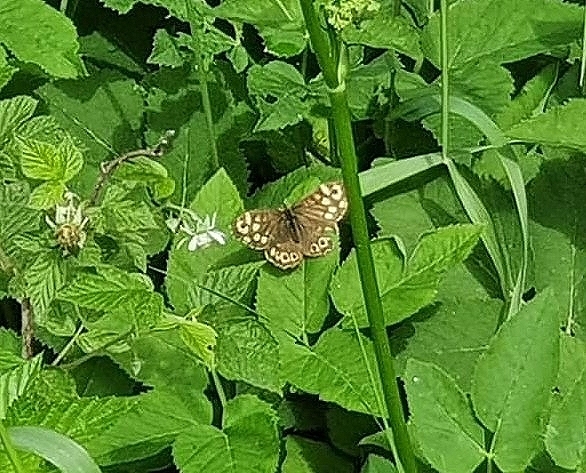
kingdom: Animalia
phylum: Arthropoda
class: Insecta
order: Lepidoptera
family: Nymphalidae
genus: Pararge
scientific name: Pararge aegeria
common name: Speckled wood
